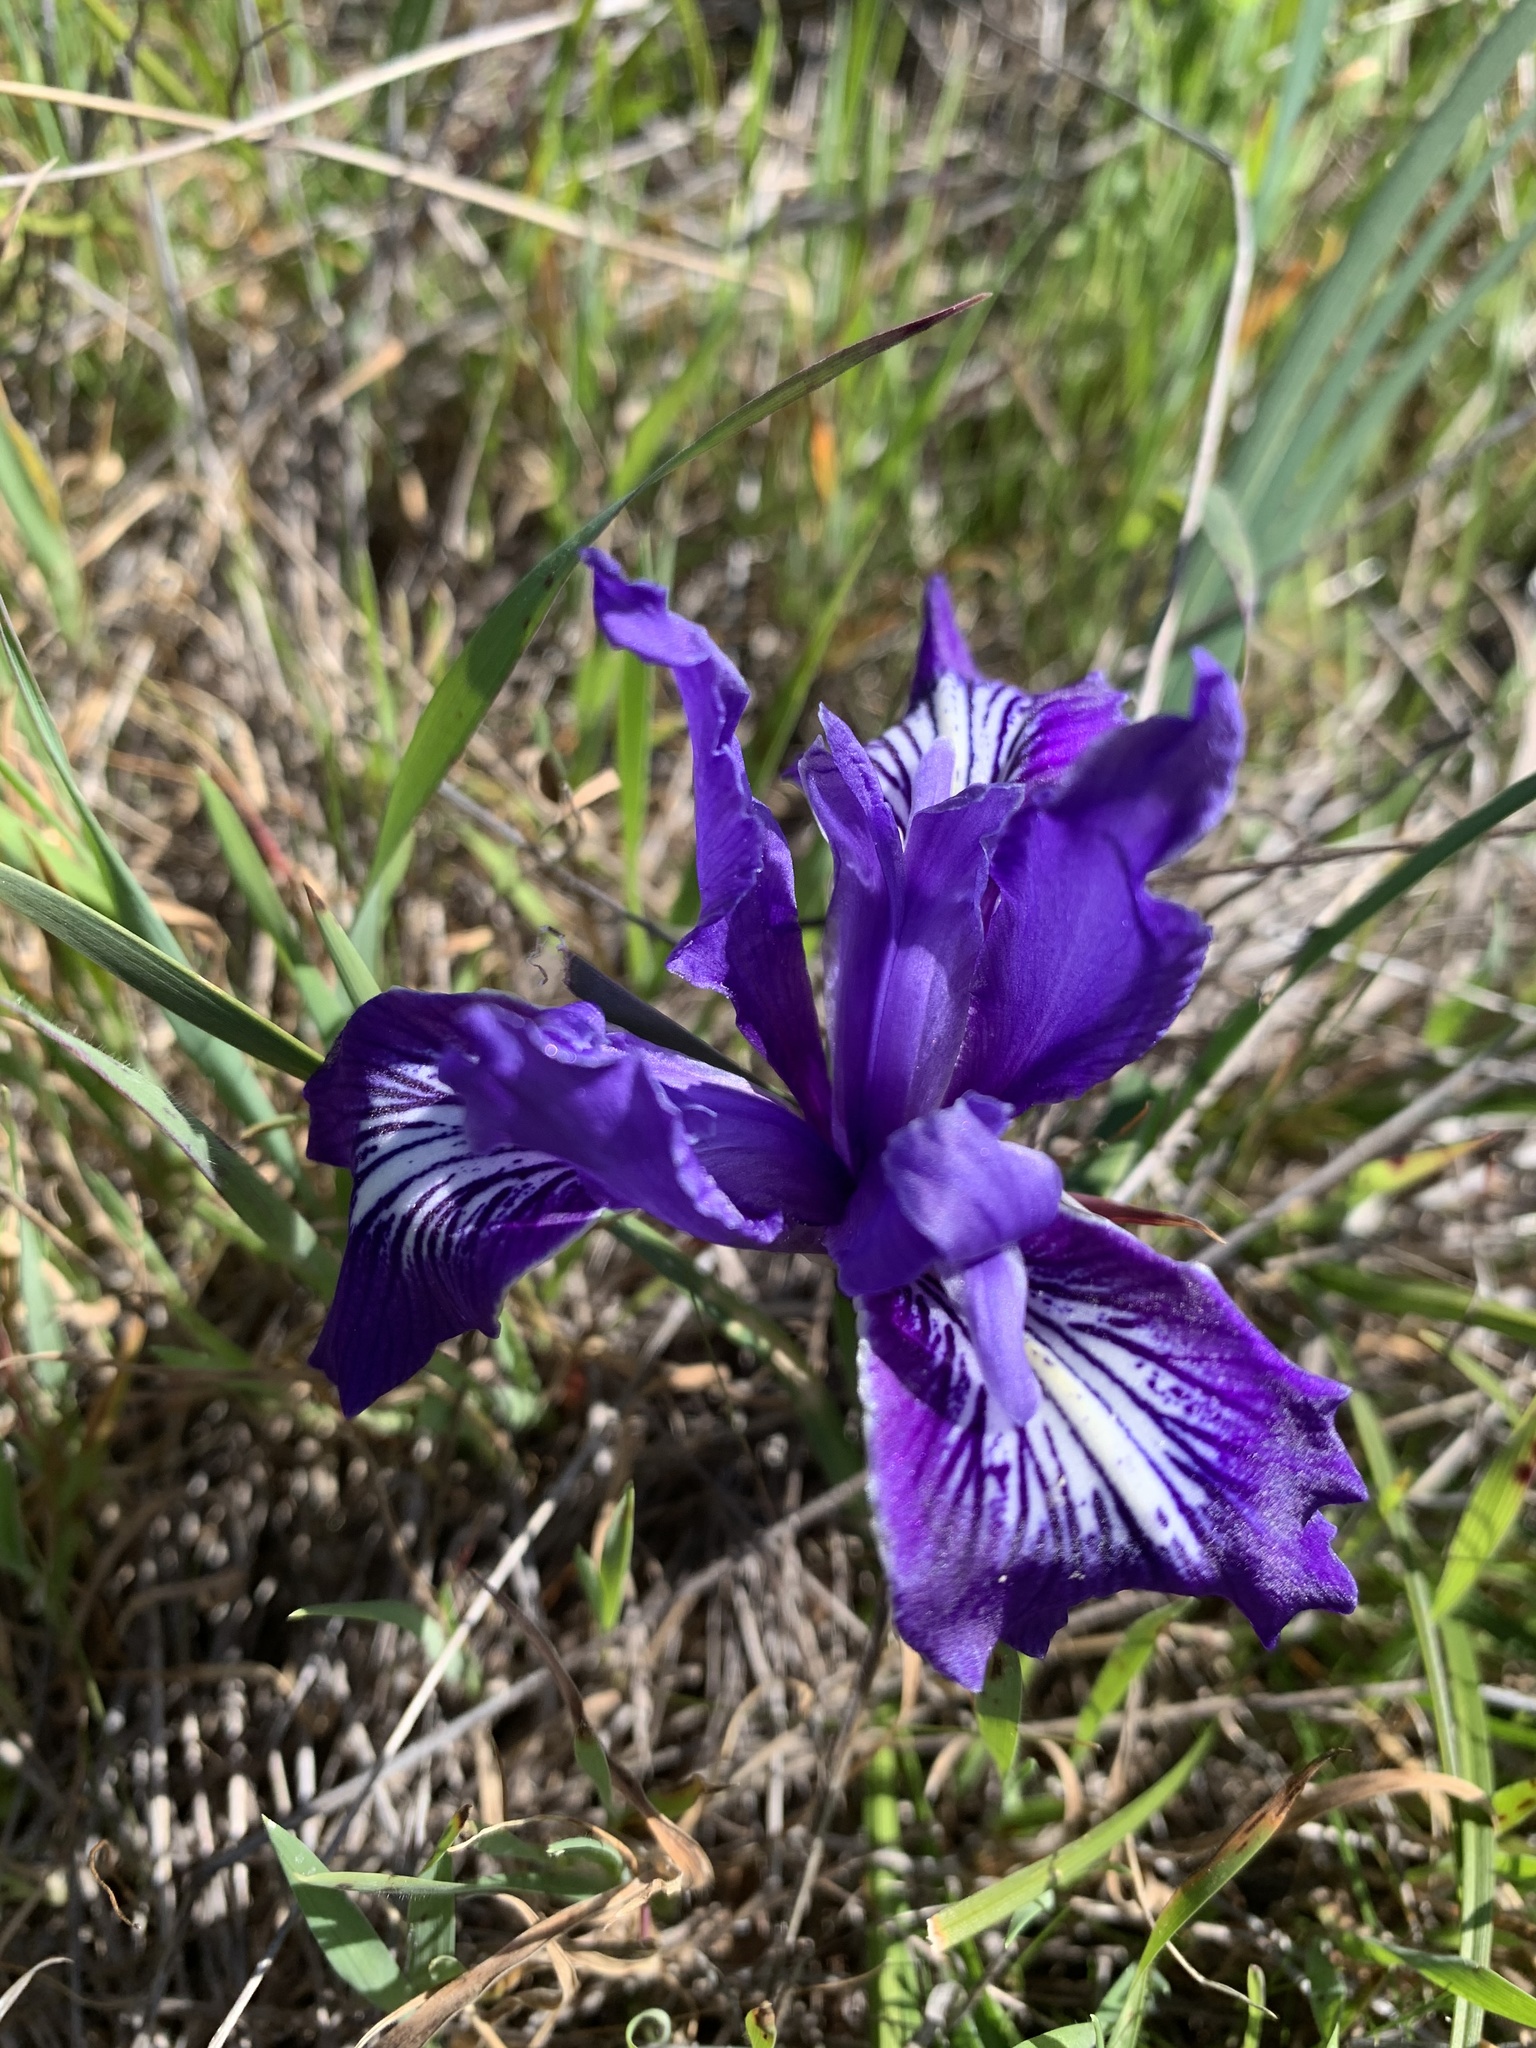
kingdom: Plantae
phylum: Tracheophyta
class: Liliopsida
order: Asparagales
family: Iridaceae
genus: Iris
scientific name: Iris macrosiphon
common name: Ground iris
